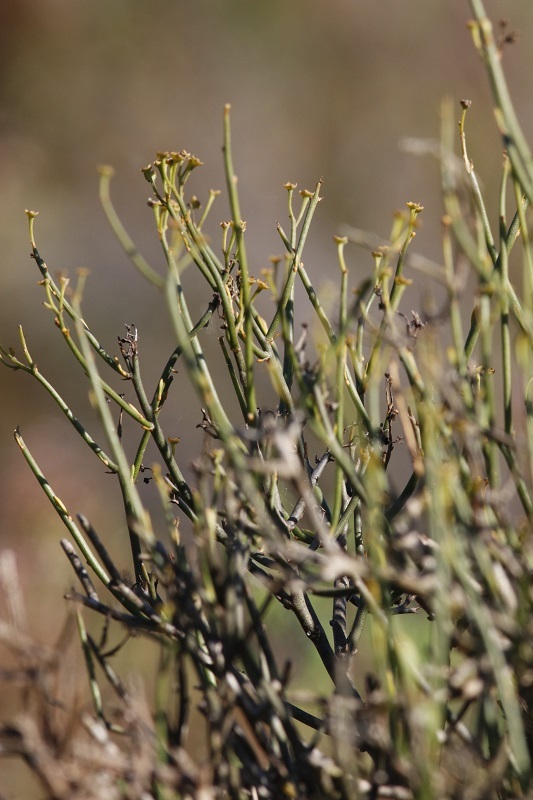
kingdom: Plantae
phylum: Tracheophyta
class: Magnoliopsida
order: Solanales
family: Montiniaceae
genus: Montinia
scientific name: Montinia caryophyllacea
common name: Wild clove-bush
